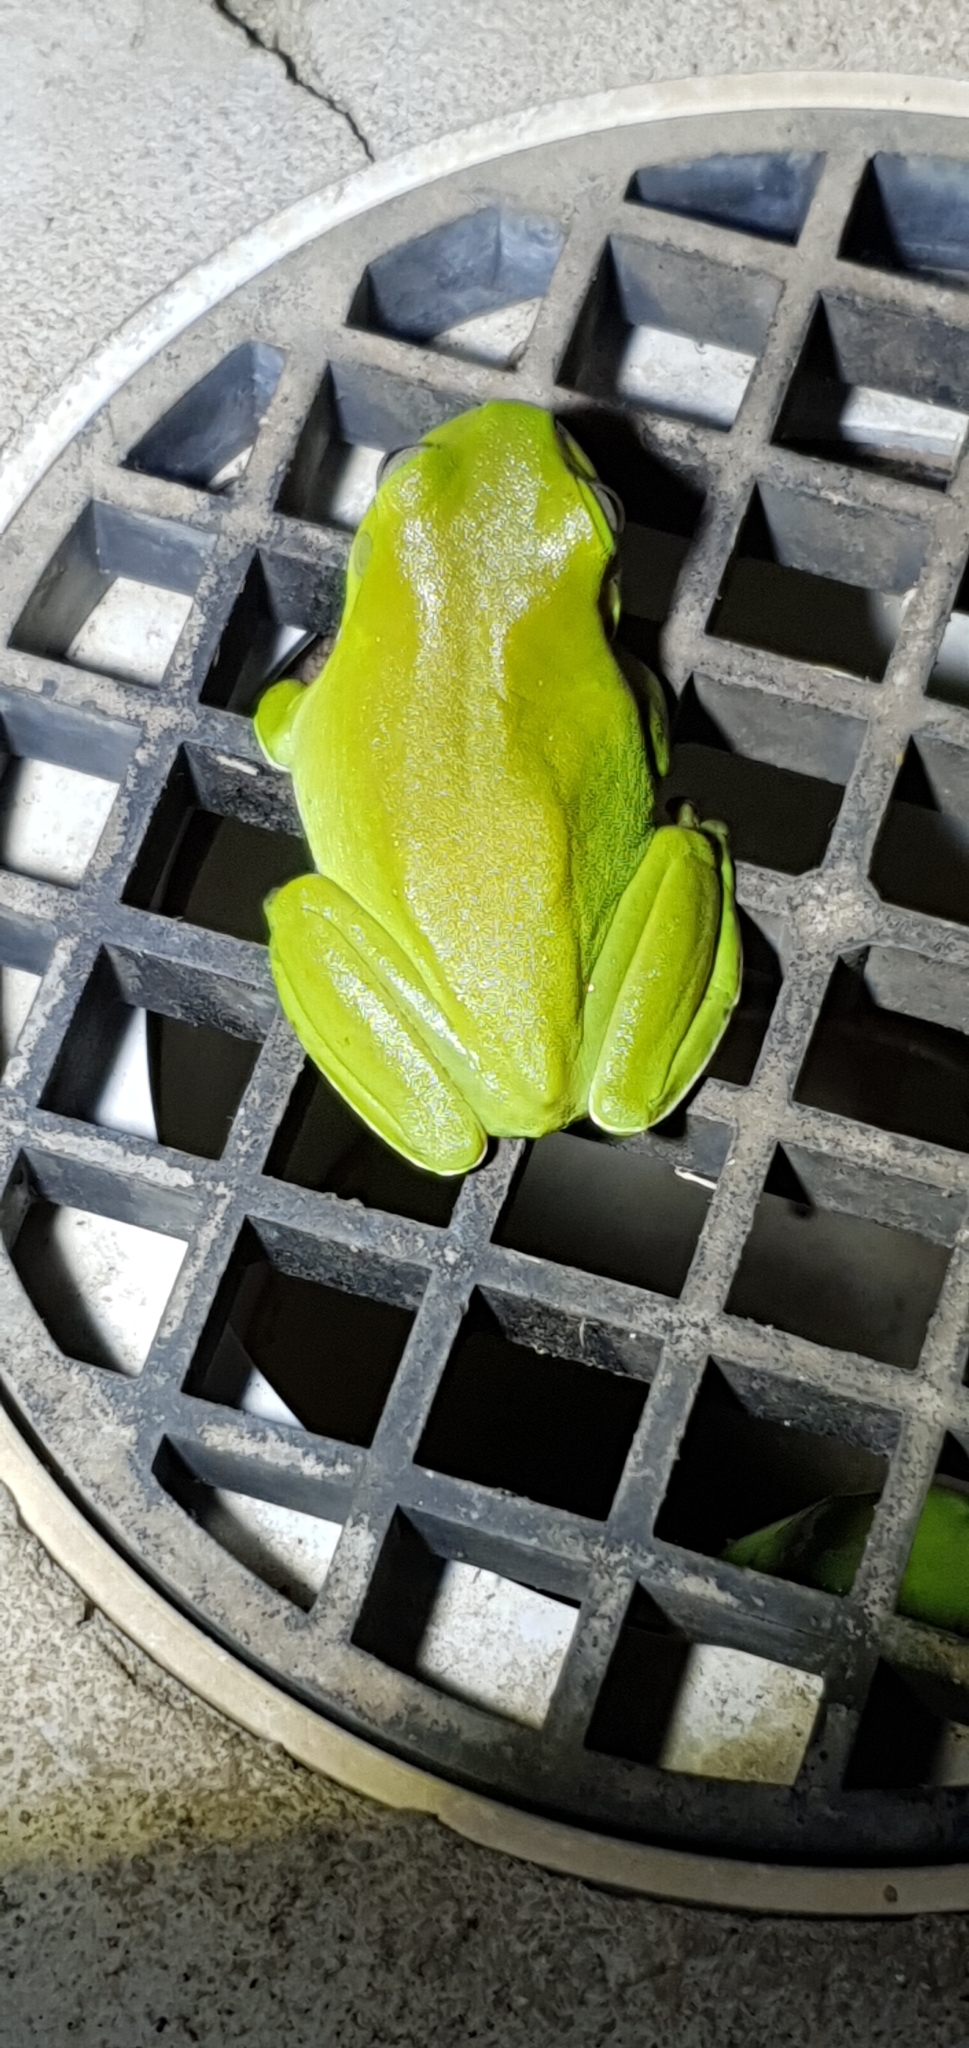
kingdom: Animalia
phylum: Chordata
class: Amphibia
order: Anura
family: Pelodryadidae
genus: Ranoidea
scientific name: Ranoidea caerulea
